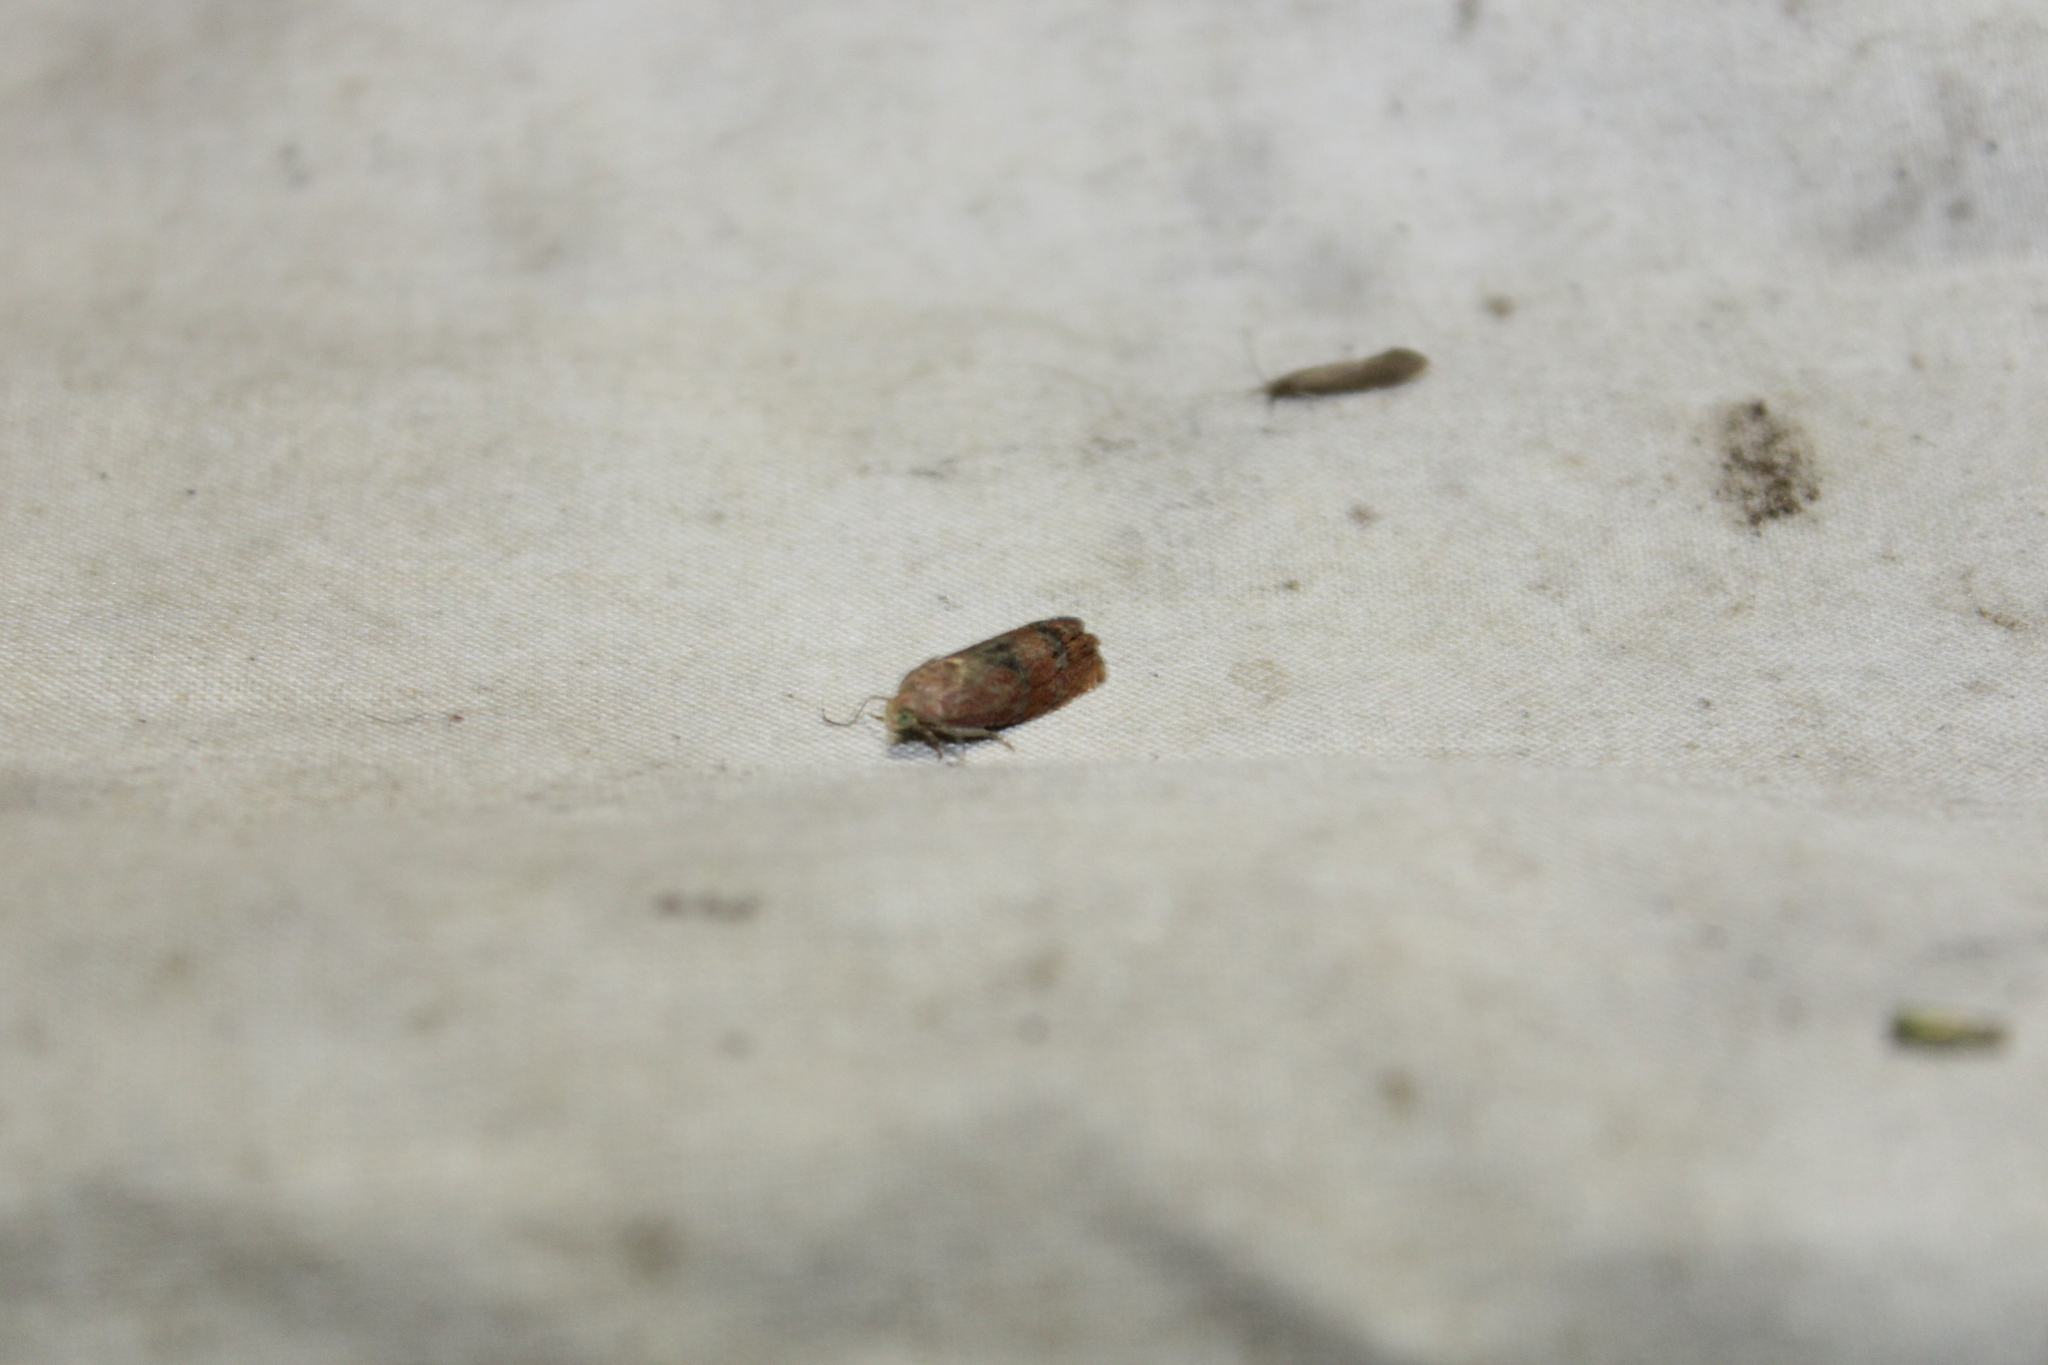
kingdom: Animalia
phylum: Arthropoda
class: Insecta
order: Lepidoptera
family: Tortricidae
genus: Cydia
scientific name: Cydia latiferreana
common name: Filbertworm moth
